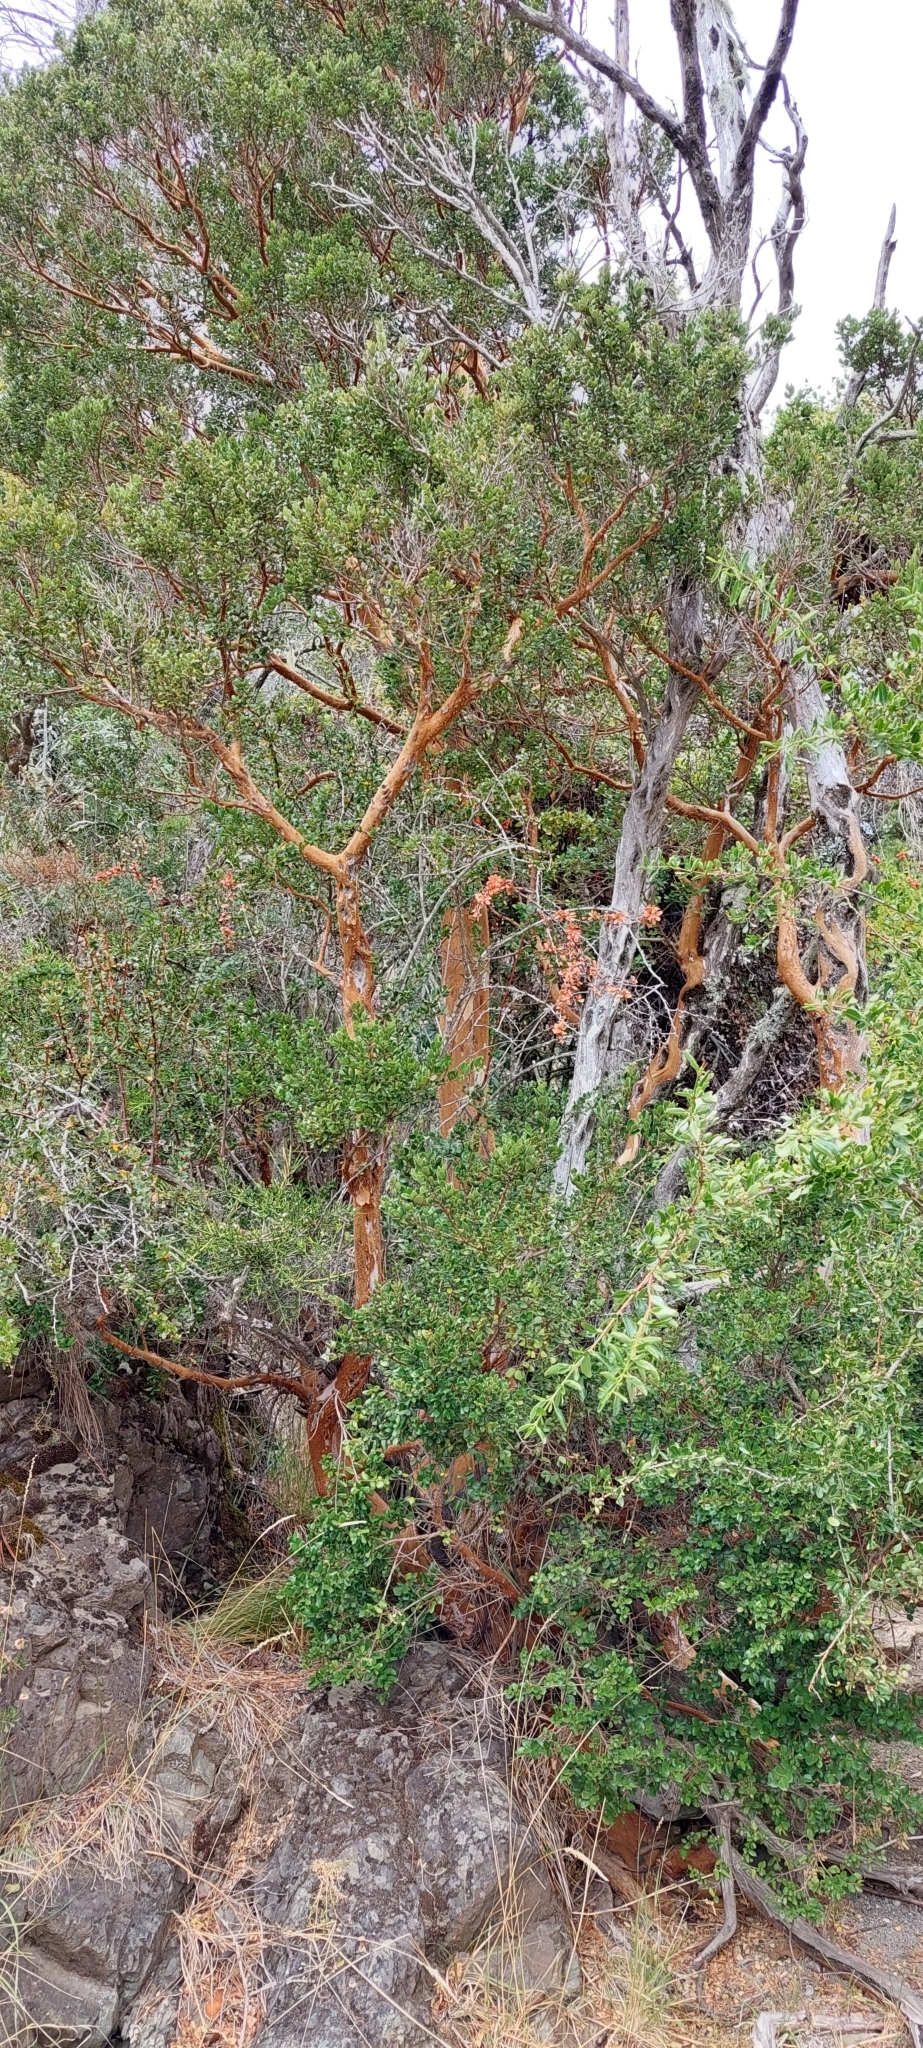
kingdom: Plantae
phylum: Tracheophyta
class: Magnoliopsida
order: Myrtales
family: Myrtaceae
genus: Luma
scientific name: Luma apiculata
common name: Chilean myrtle
